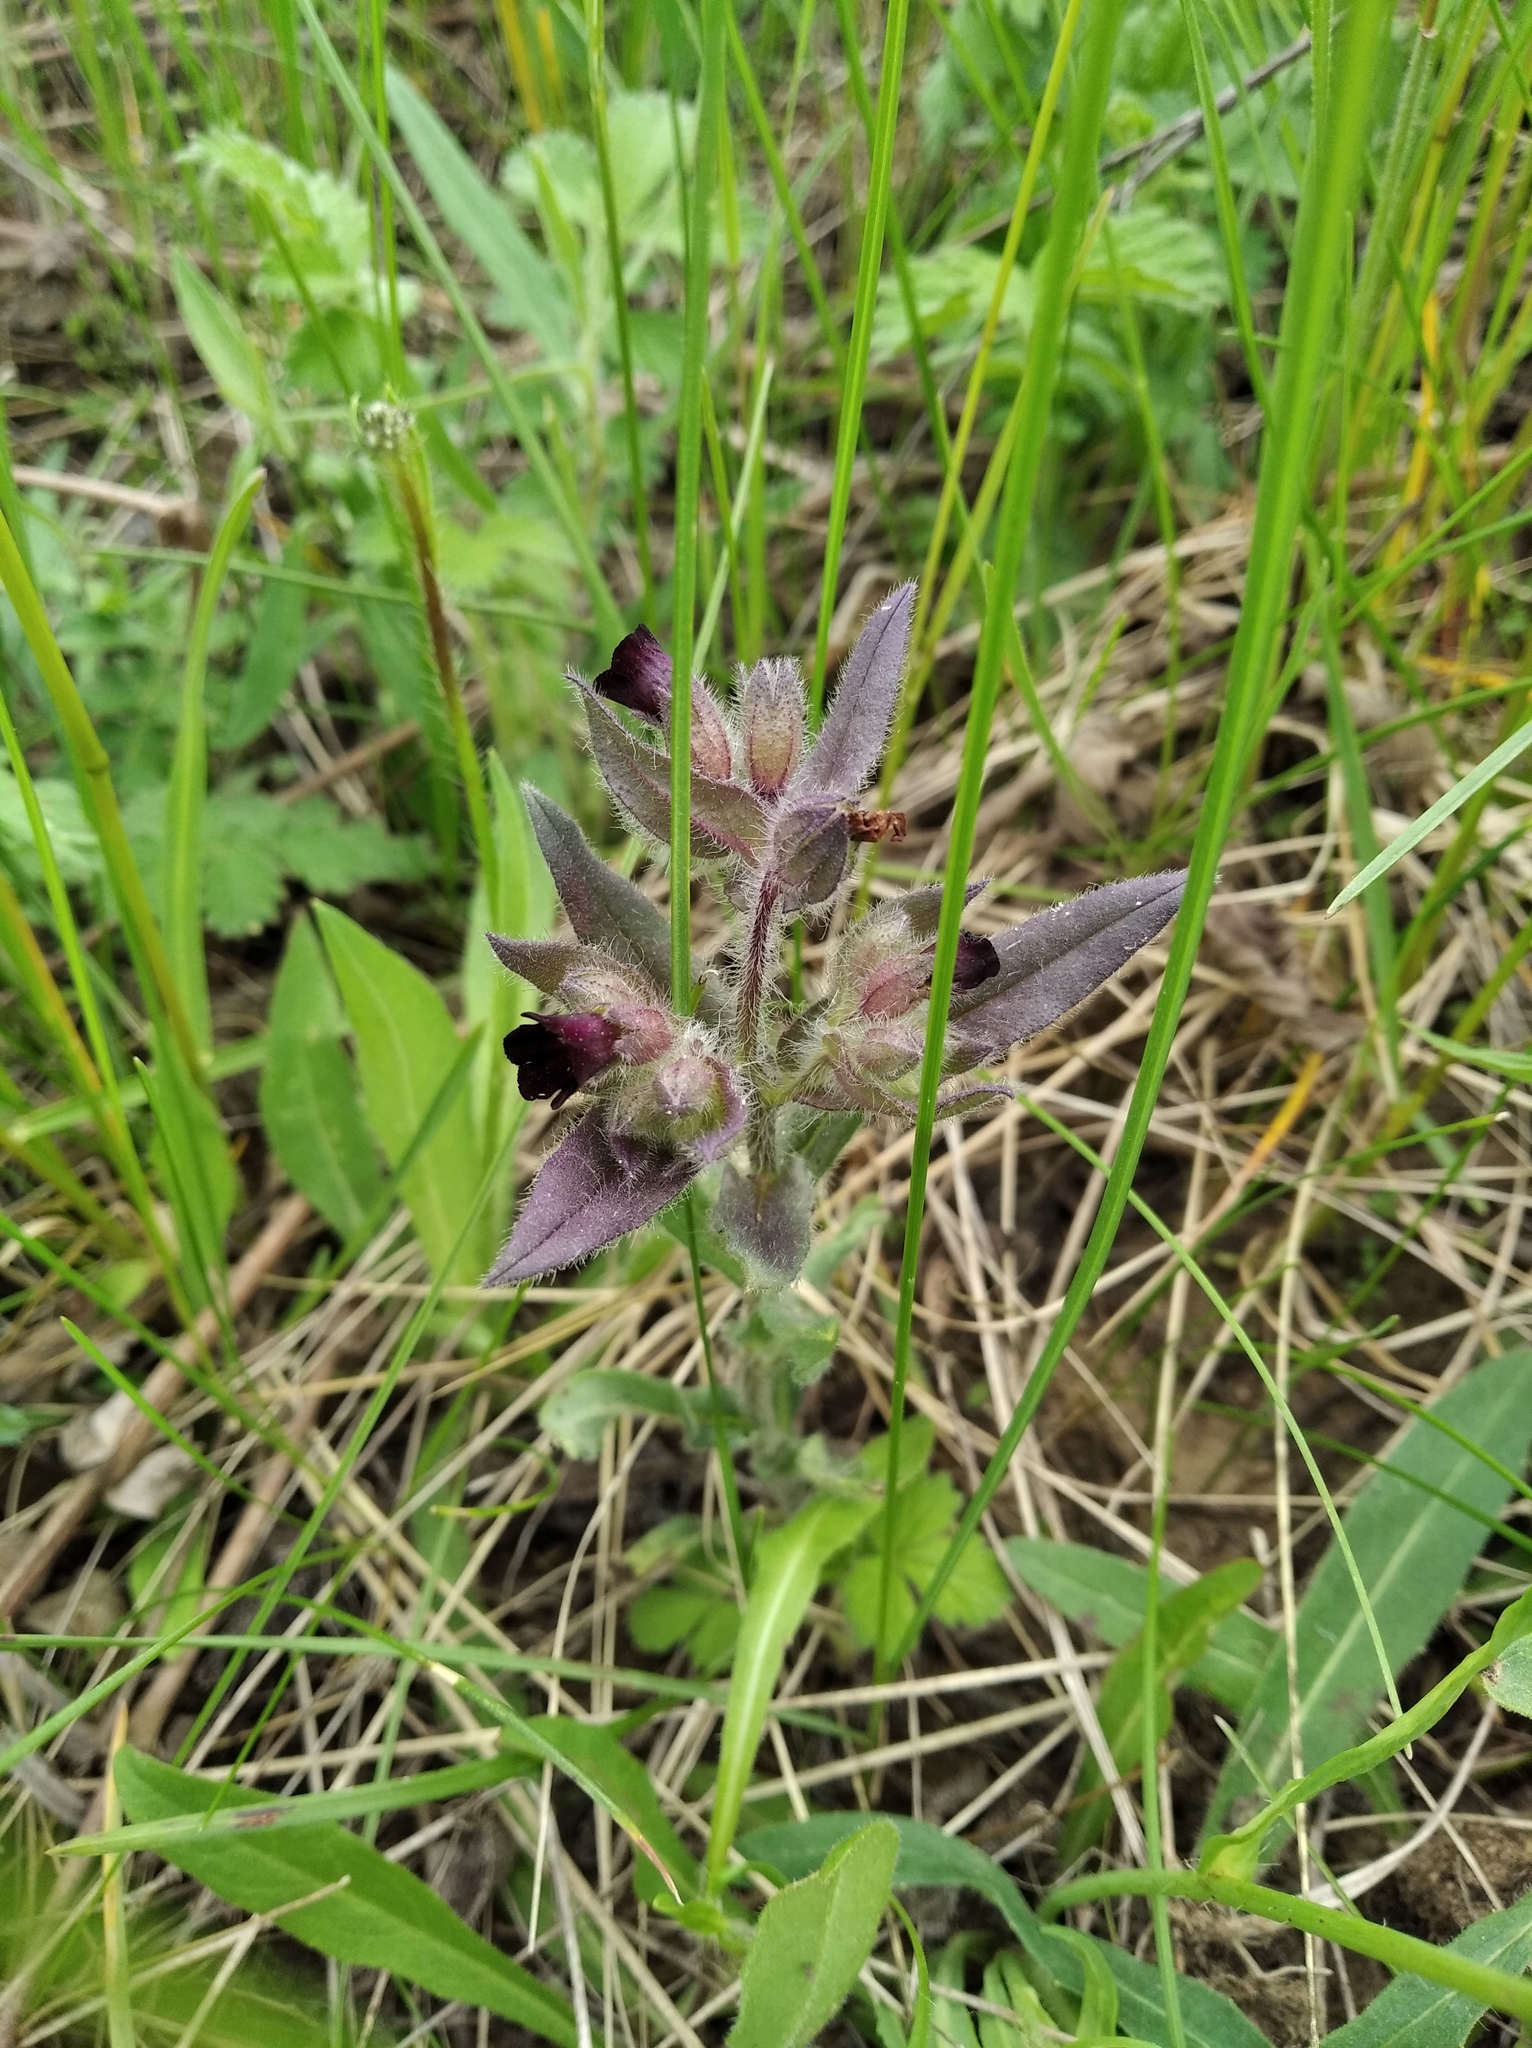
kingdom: Plantae
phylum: Tracheophyta
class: Magnoliopsida
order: Boraginales
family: Boraginaceae
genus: Nonea
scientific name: Nonea pulla
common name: Brown nonea
